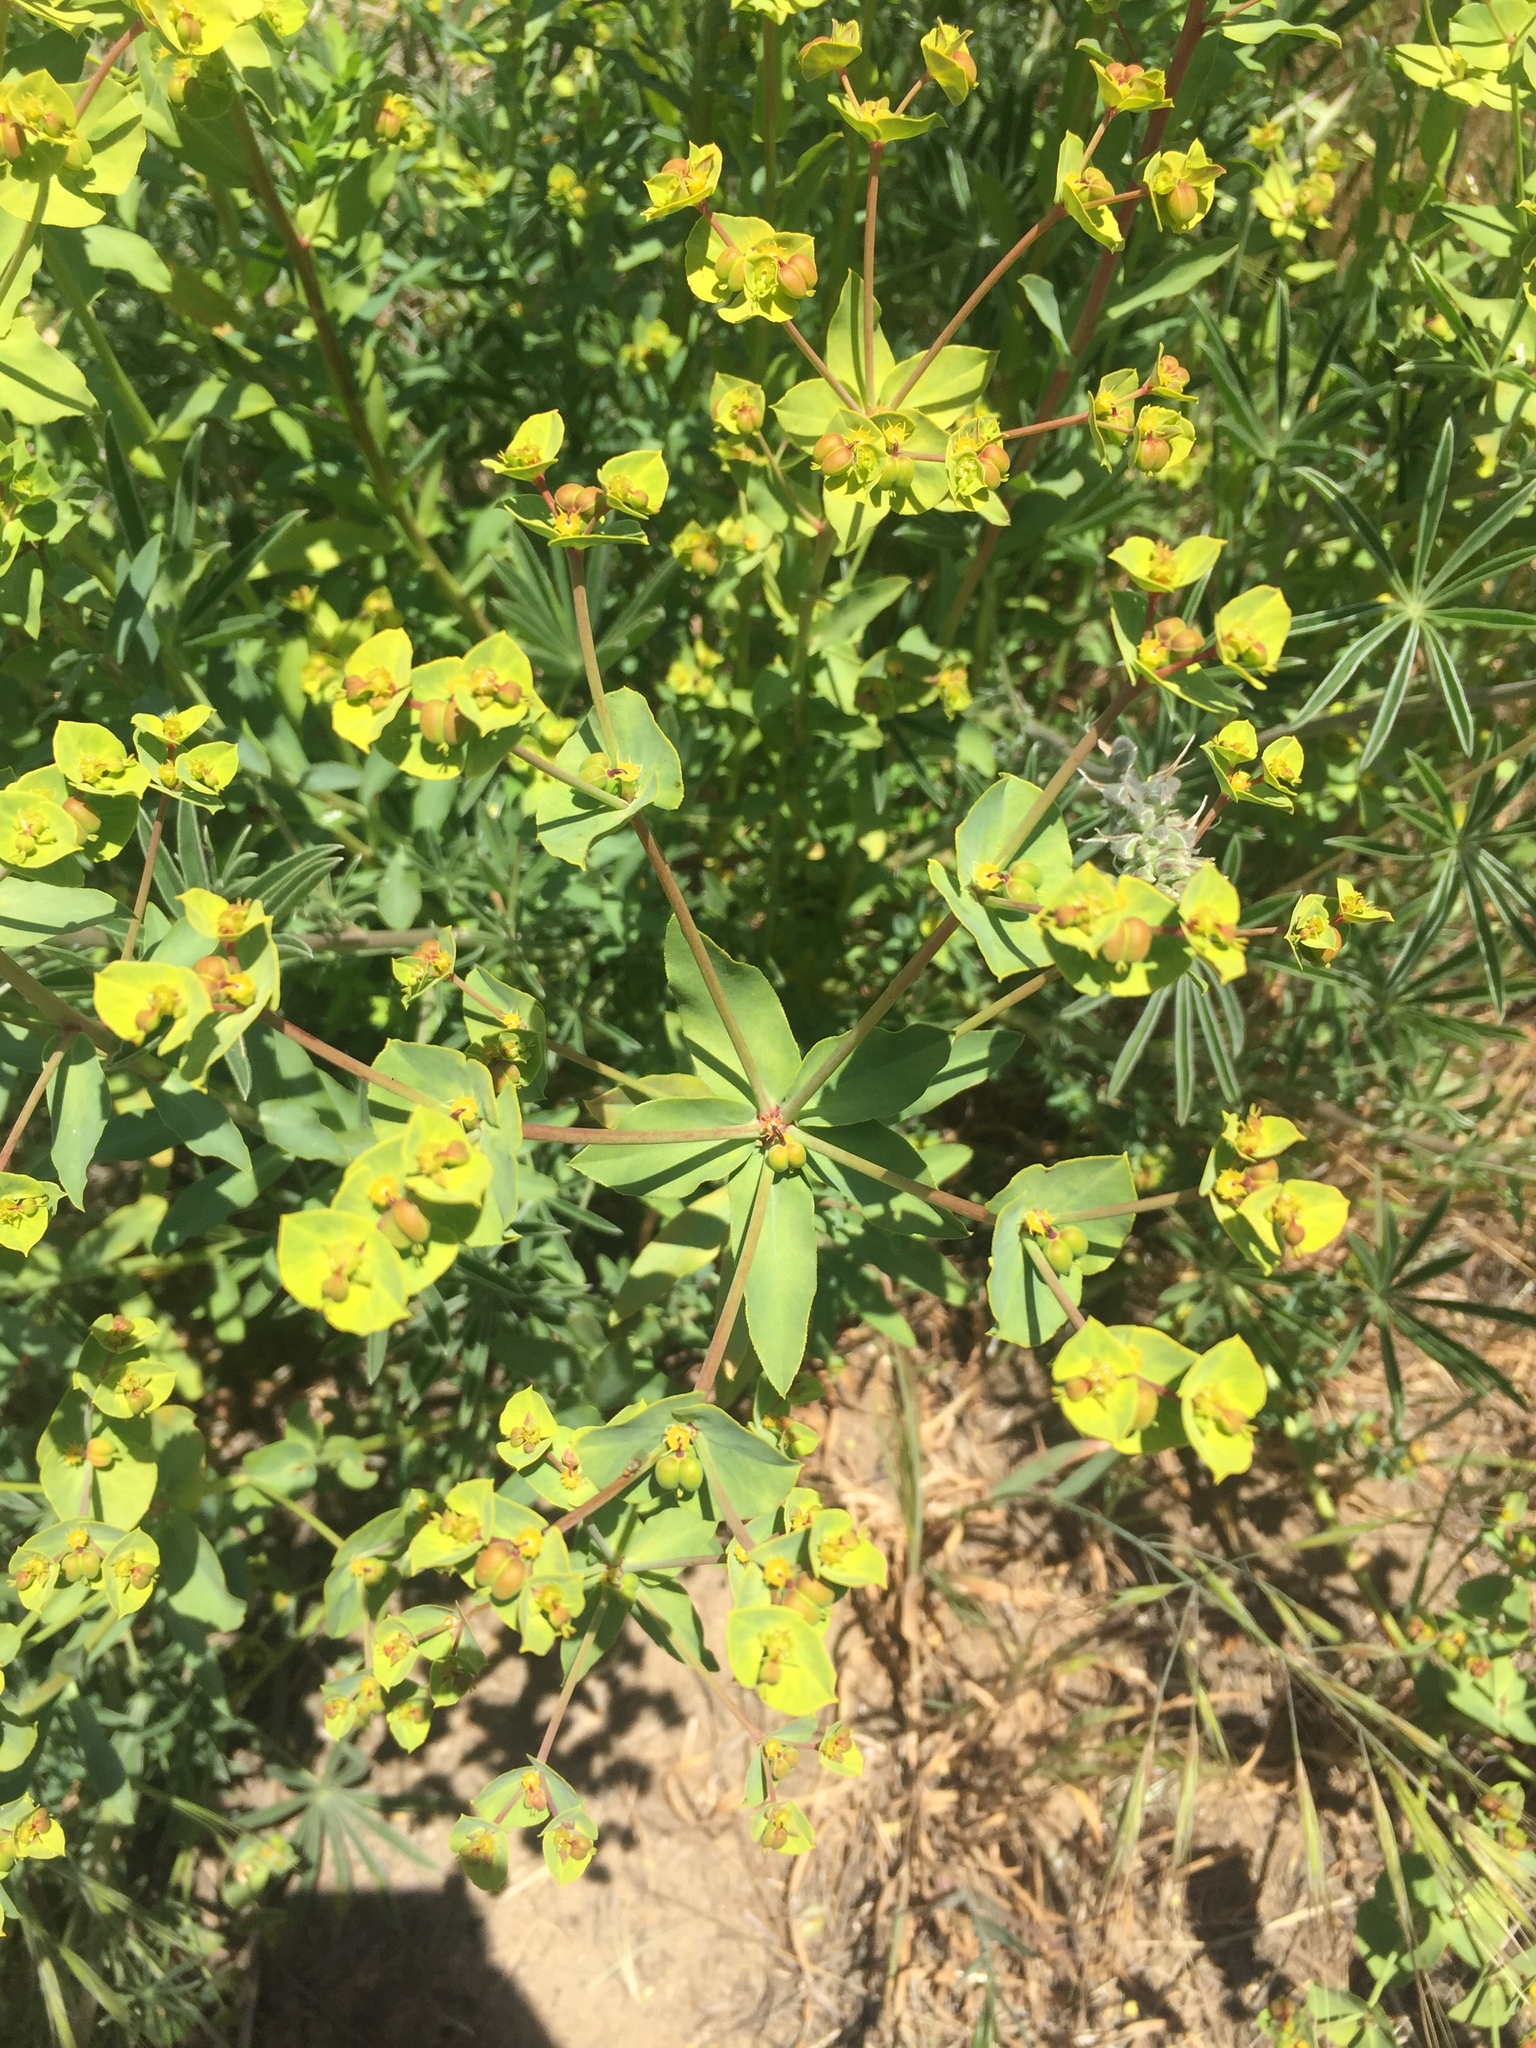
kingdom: Plantae
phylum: Tracheophyta
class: Magnoliopsida
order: Malpighiales
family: Euphorbiaceae
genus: Euphorbia
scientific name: Euphorbia terracina
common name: Geraldton carnation weed
